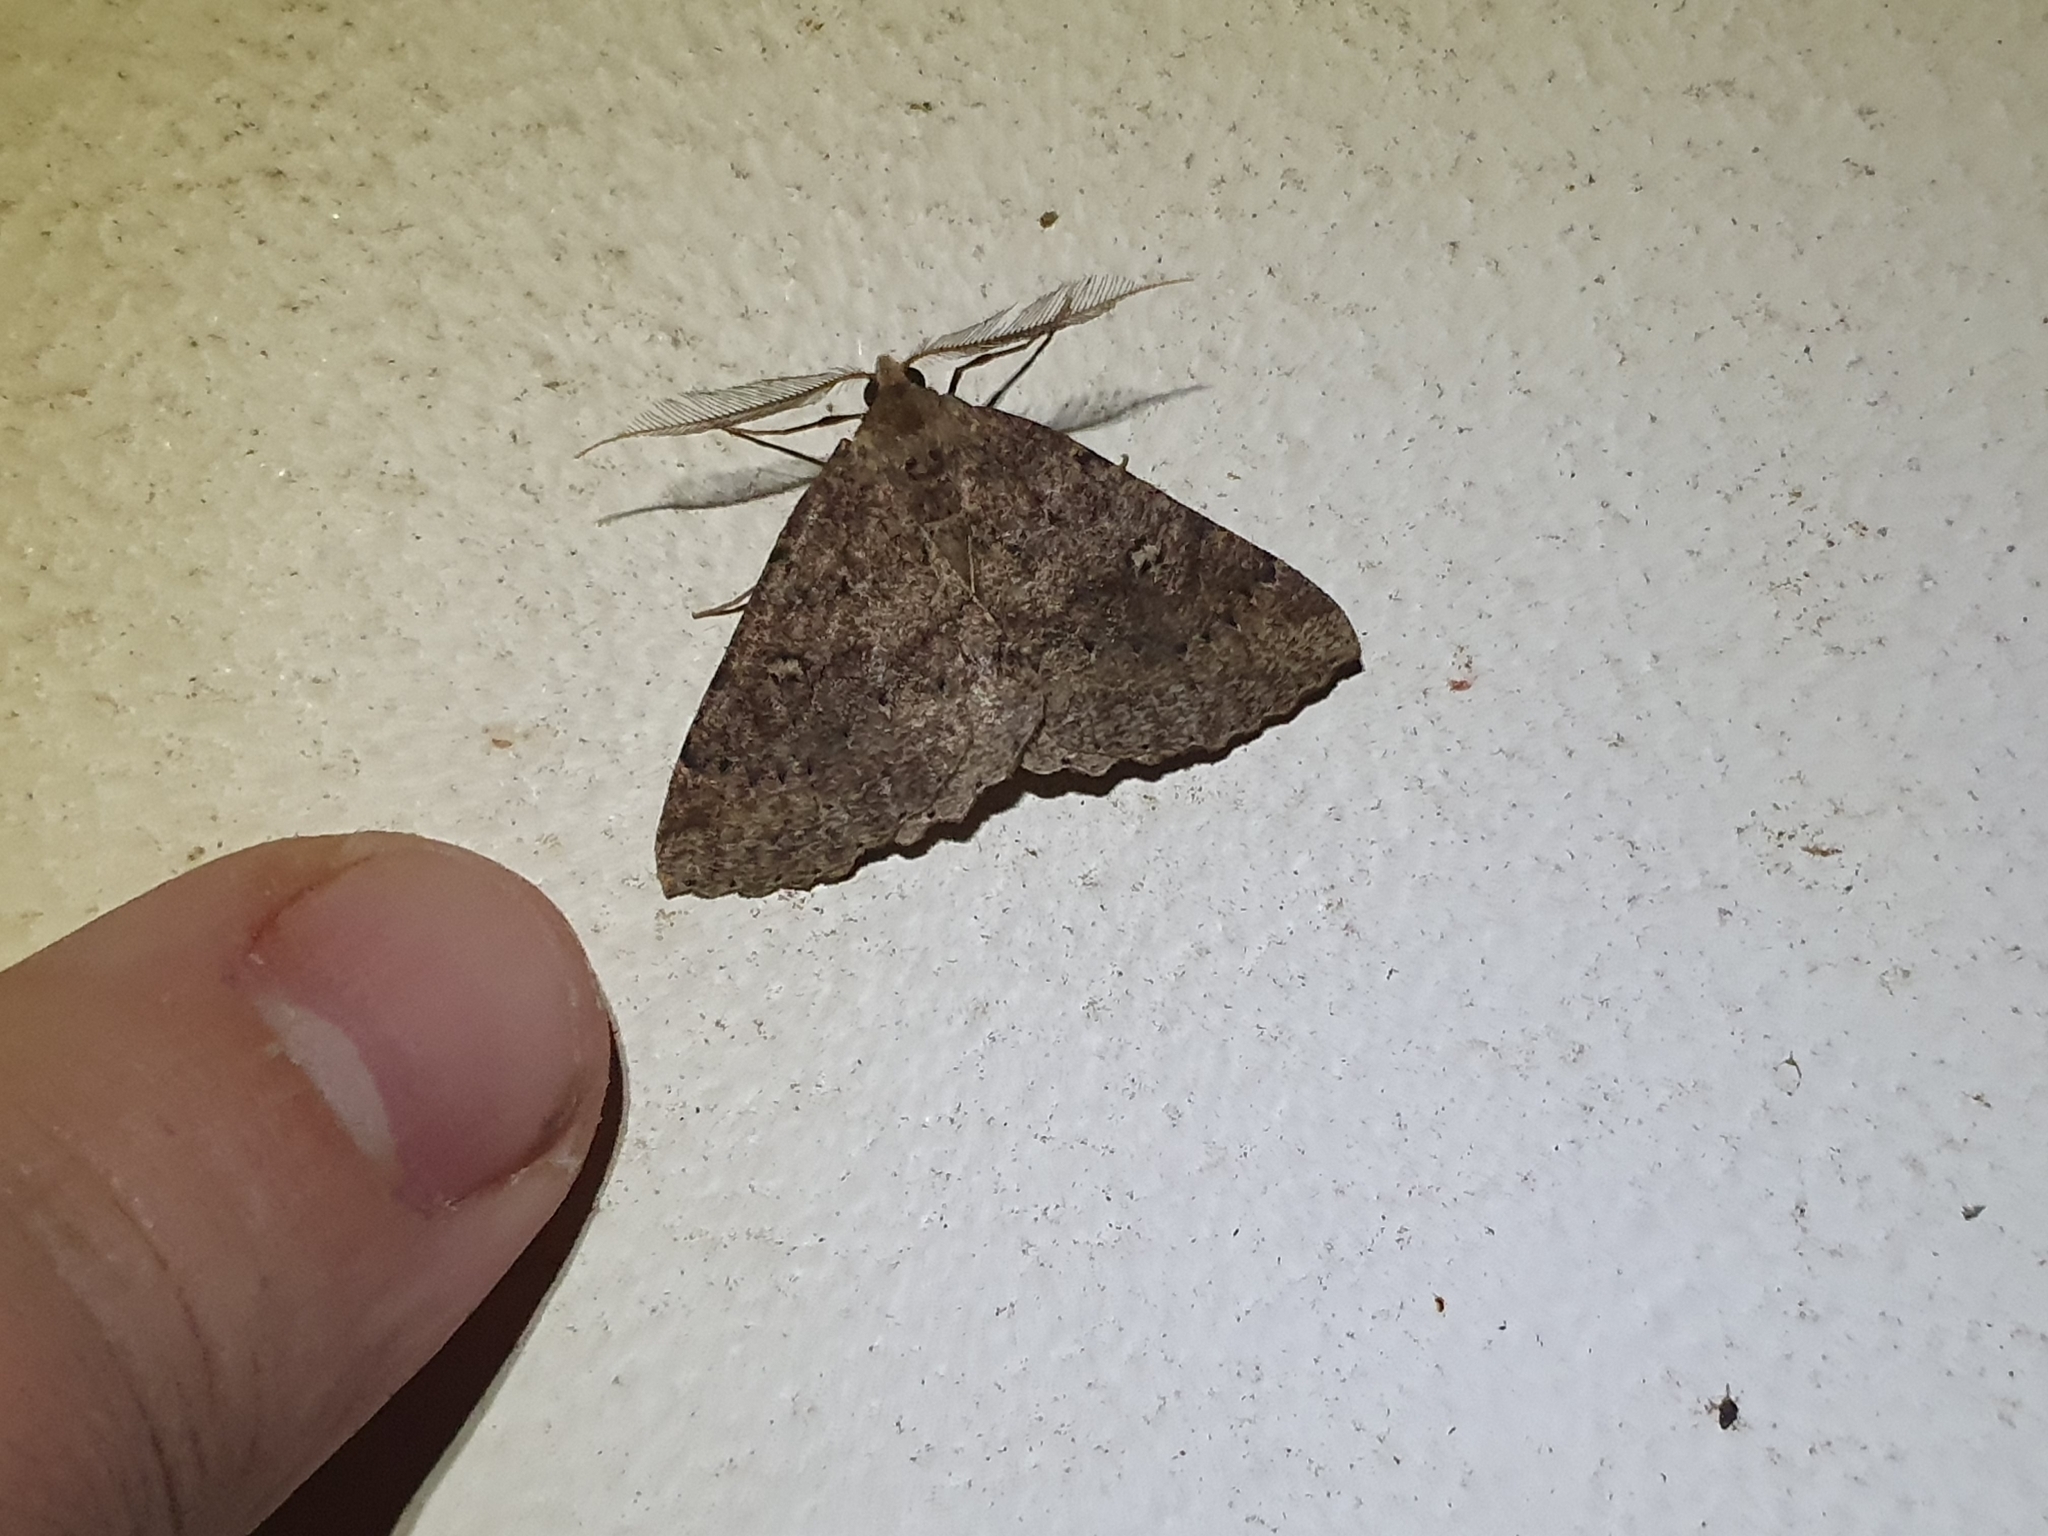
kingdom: Animalia
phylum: Arthropoda
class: Insecta
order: Lepidoptera
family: Geometridae
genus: Cleora
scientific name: Cleora scriptaria
